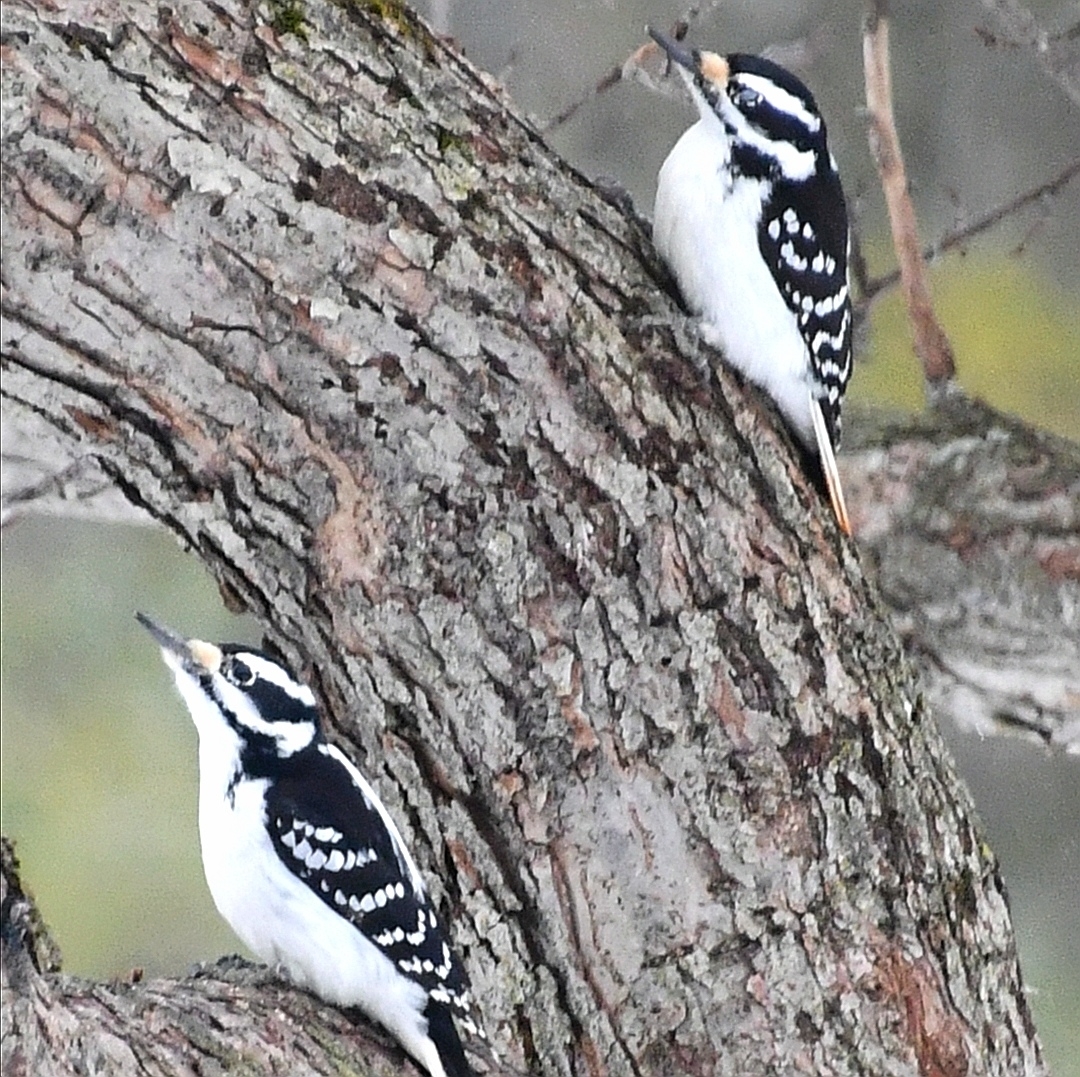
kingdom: Animalia
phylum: Chordata
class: Aves
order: Piciformes
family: Picidae
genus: Leuconotopicus
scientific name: Leuconotopicus villosus
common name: Hairy woodpecker
